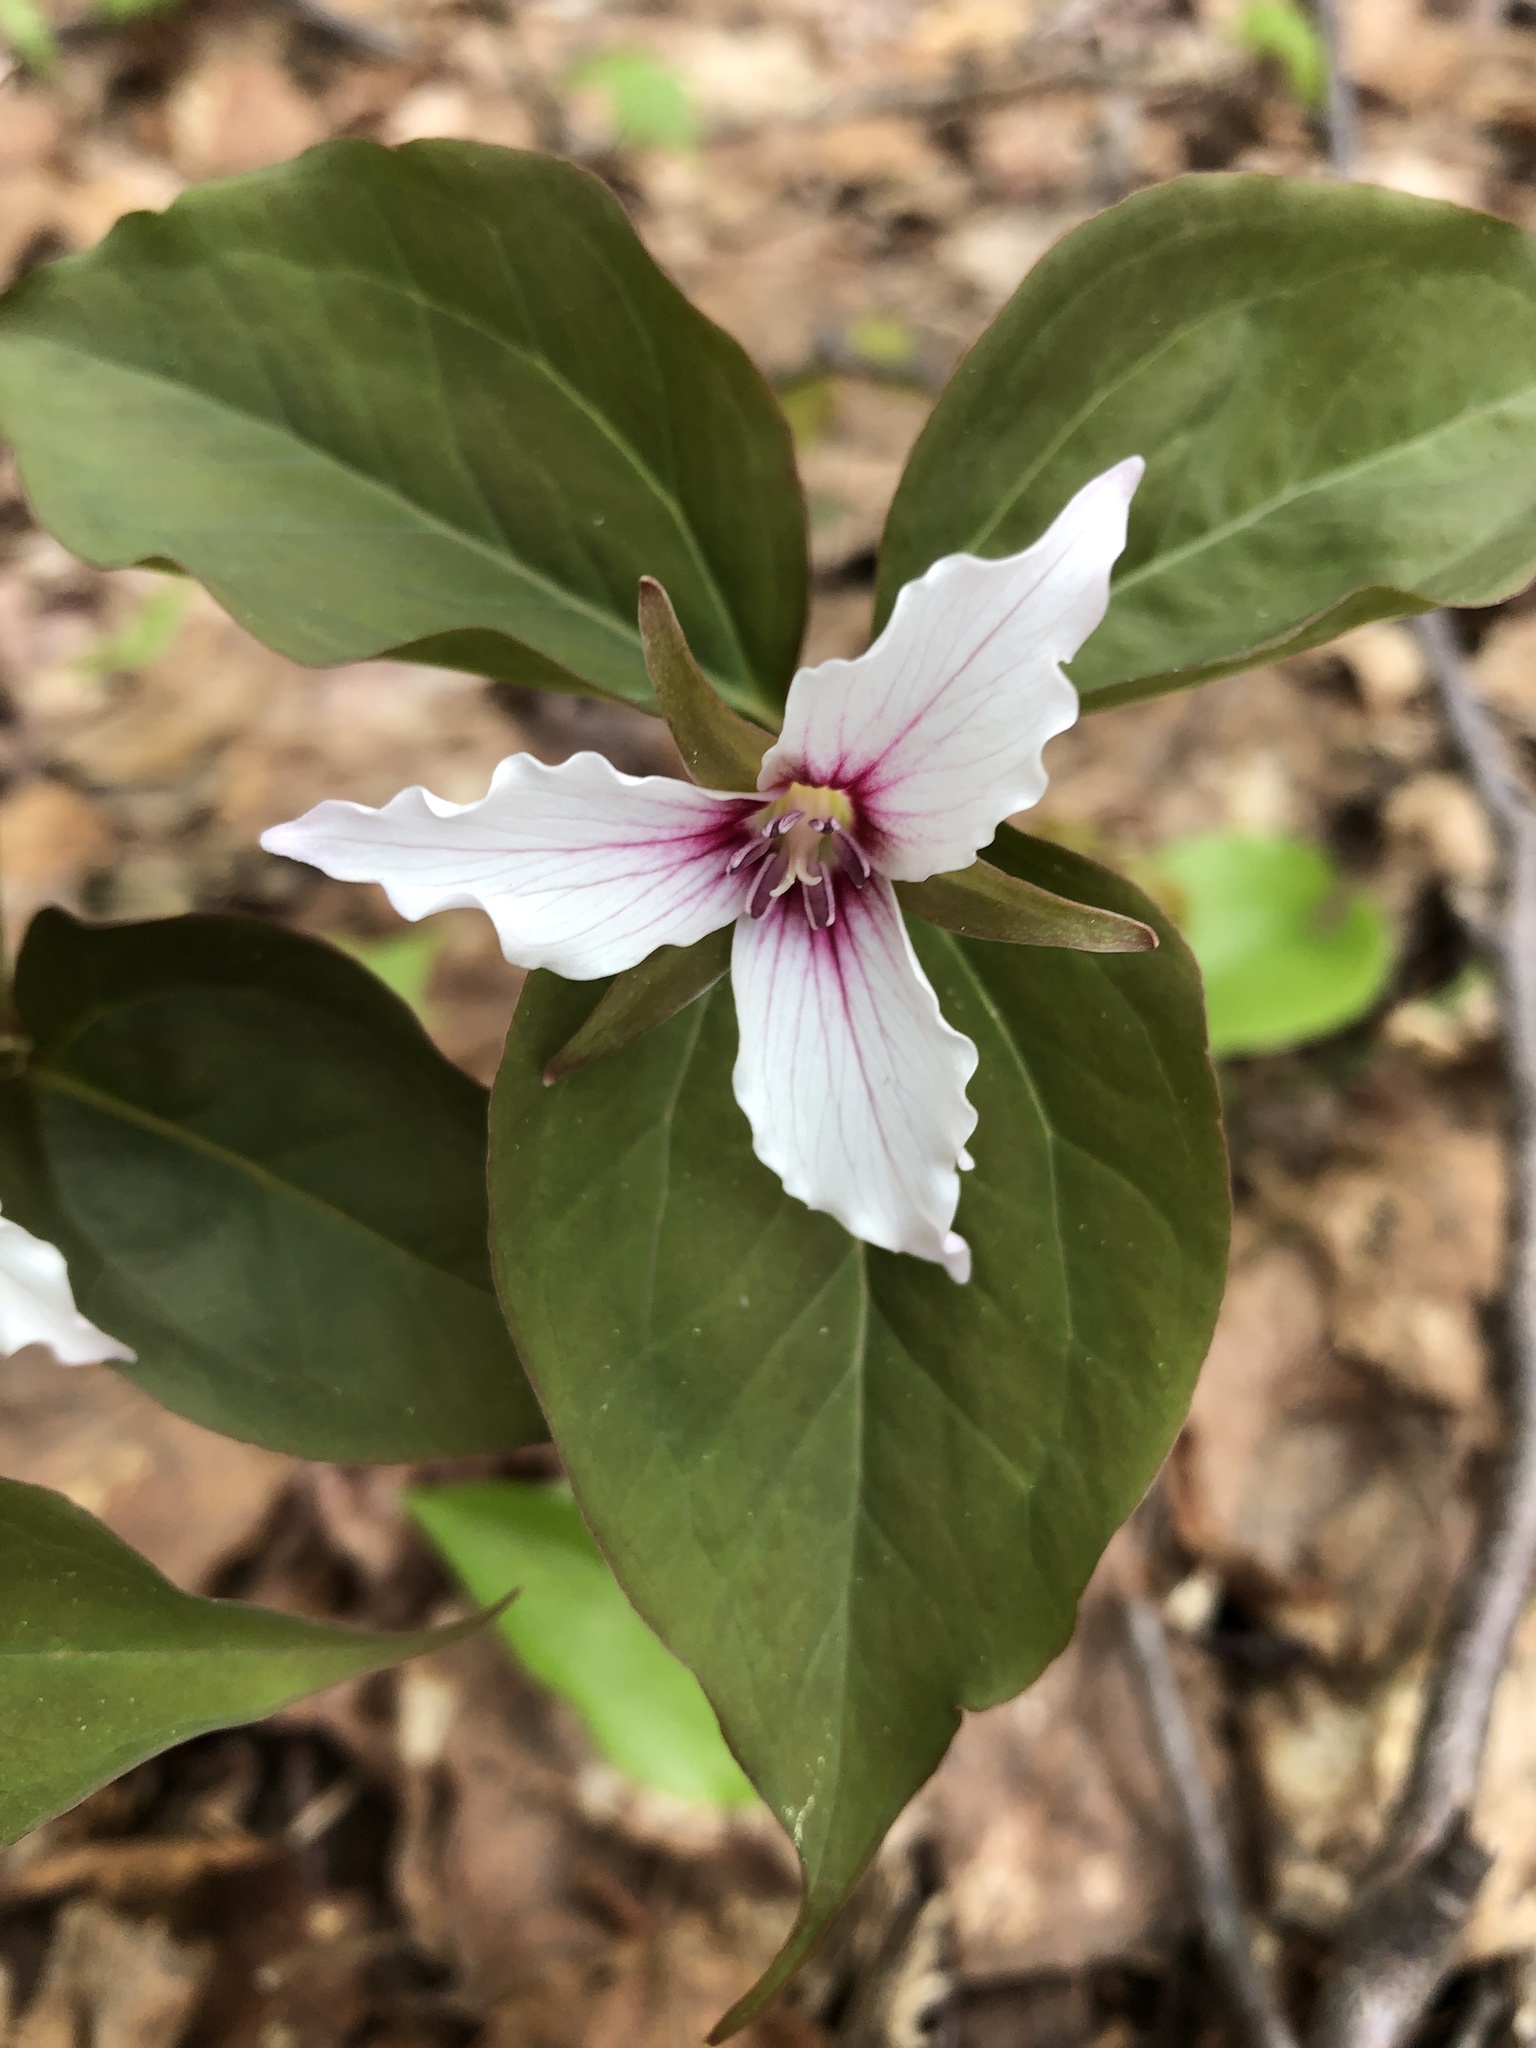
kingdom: Plantae
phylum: Tracheophyta
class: Liliopsida
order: Liliales
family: Melanthiaceae
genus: Trillium
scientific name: Trillium undulatum
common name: Paint trillium
